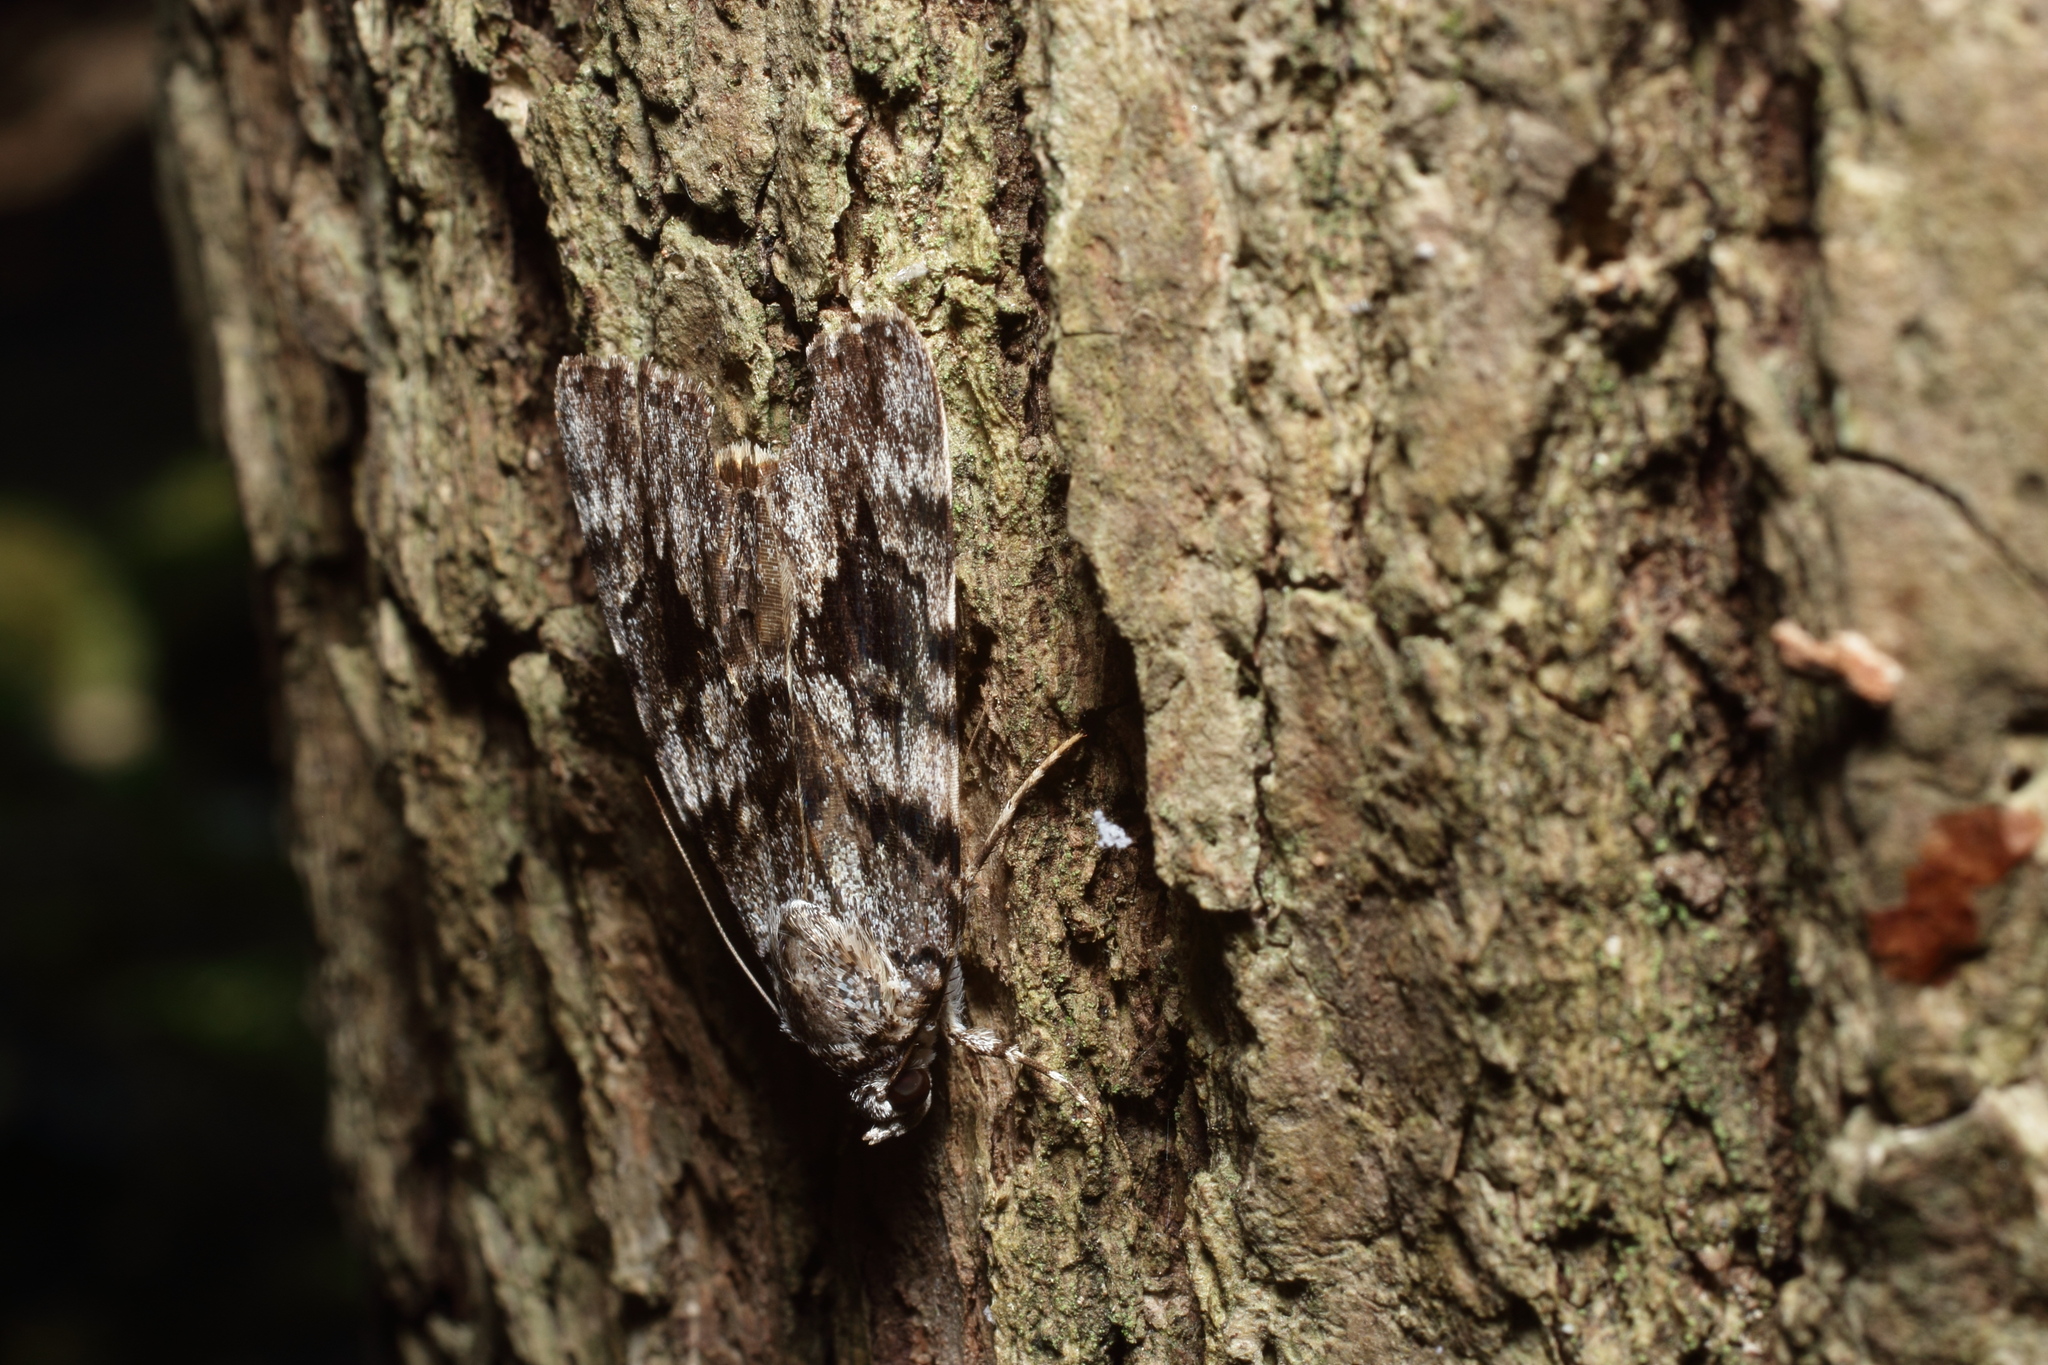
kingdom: Animalia
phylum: Arthropoda
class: Insecta
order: Lepidoptera
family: Erebidae
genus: Catocala
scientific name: Catocala duplicata
